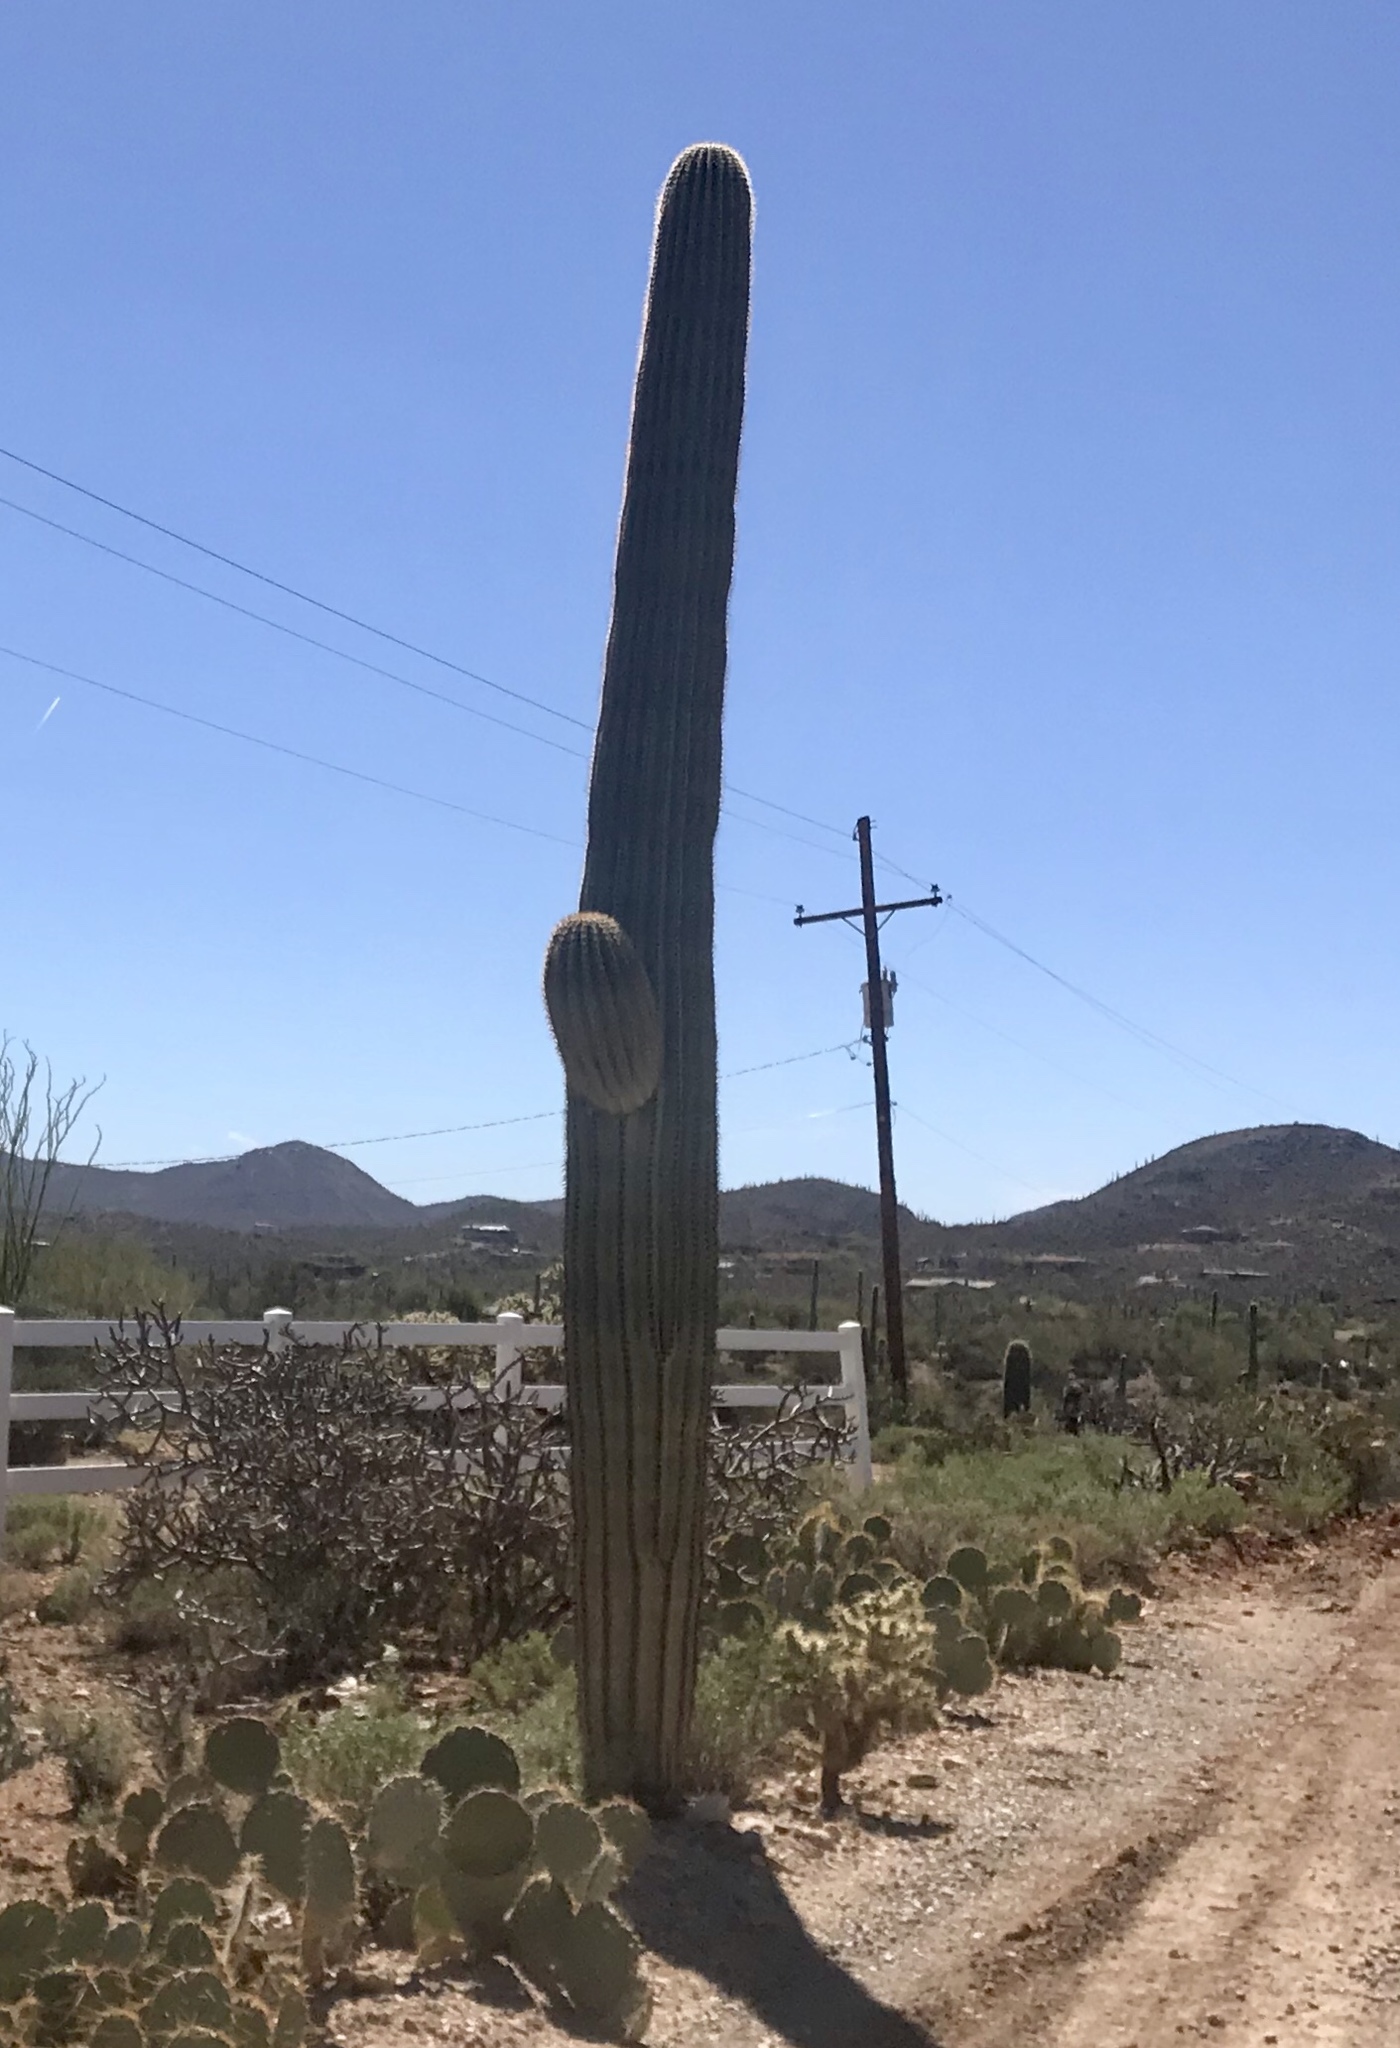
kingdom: Plantae
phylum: Tracheophyta
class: Magnoliopsida
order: Caryophyllales
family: Cactaceae
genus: Carnegiea
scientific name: Carnegiea gigantea
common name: Saguaro
